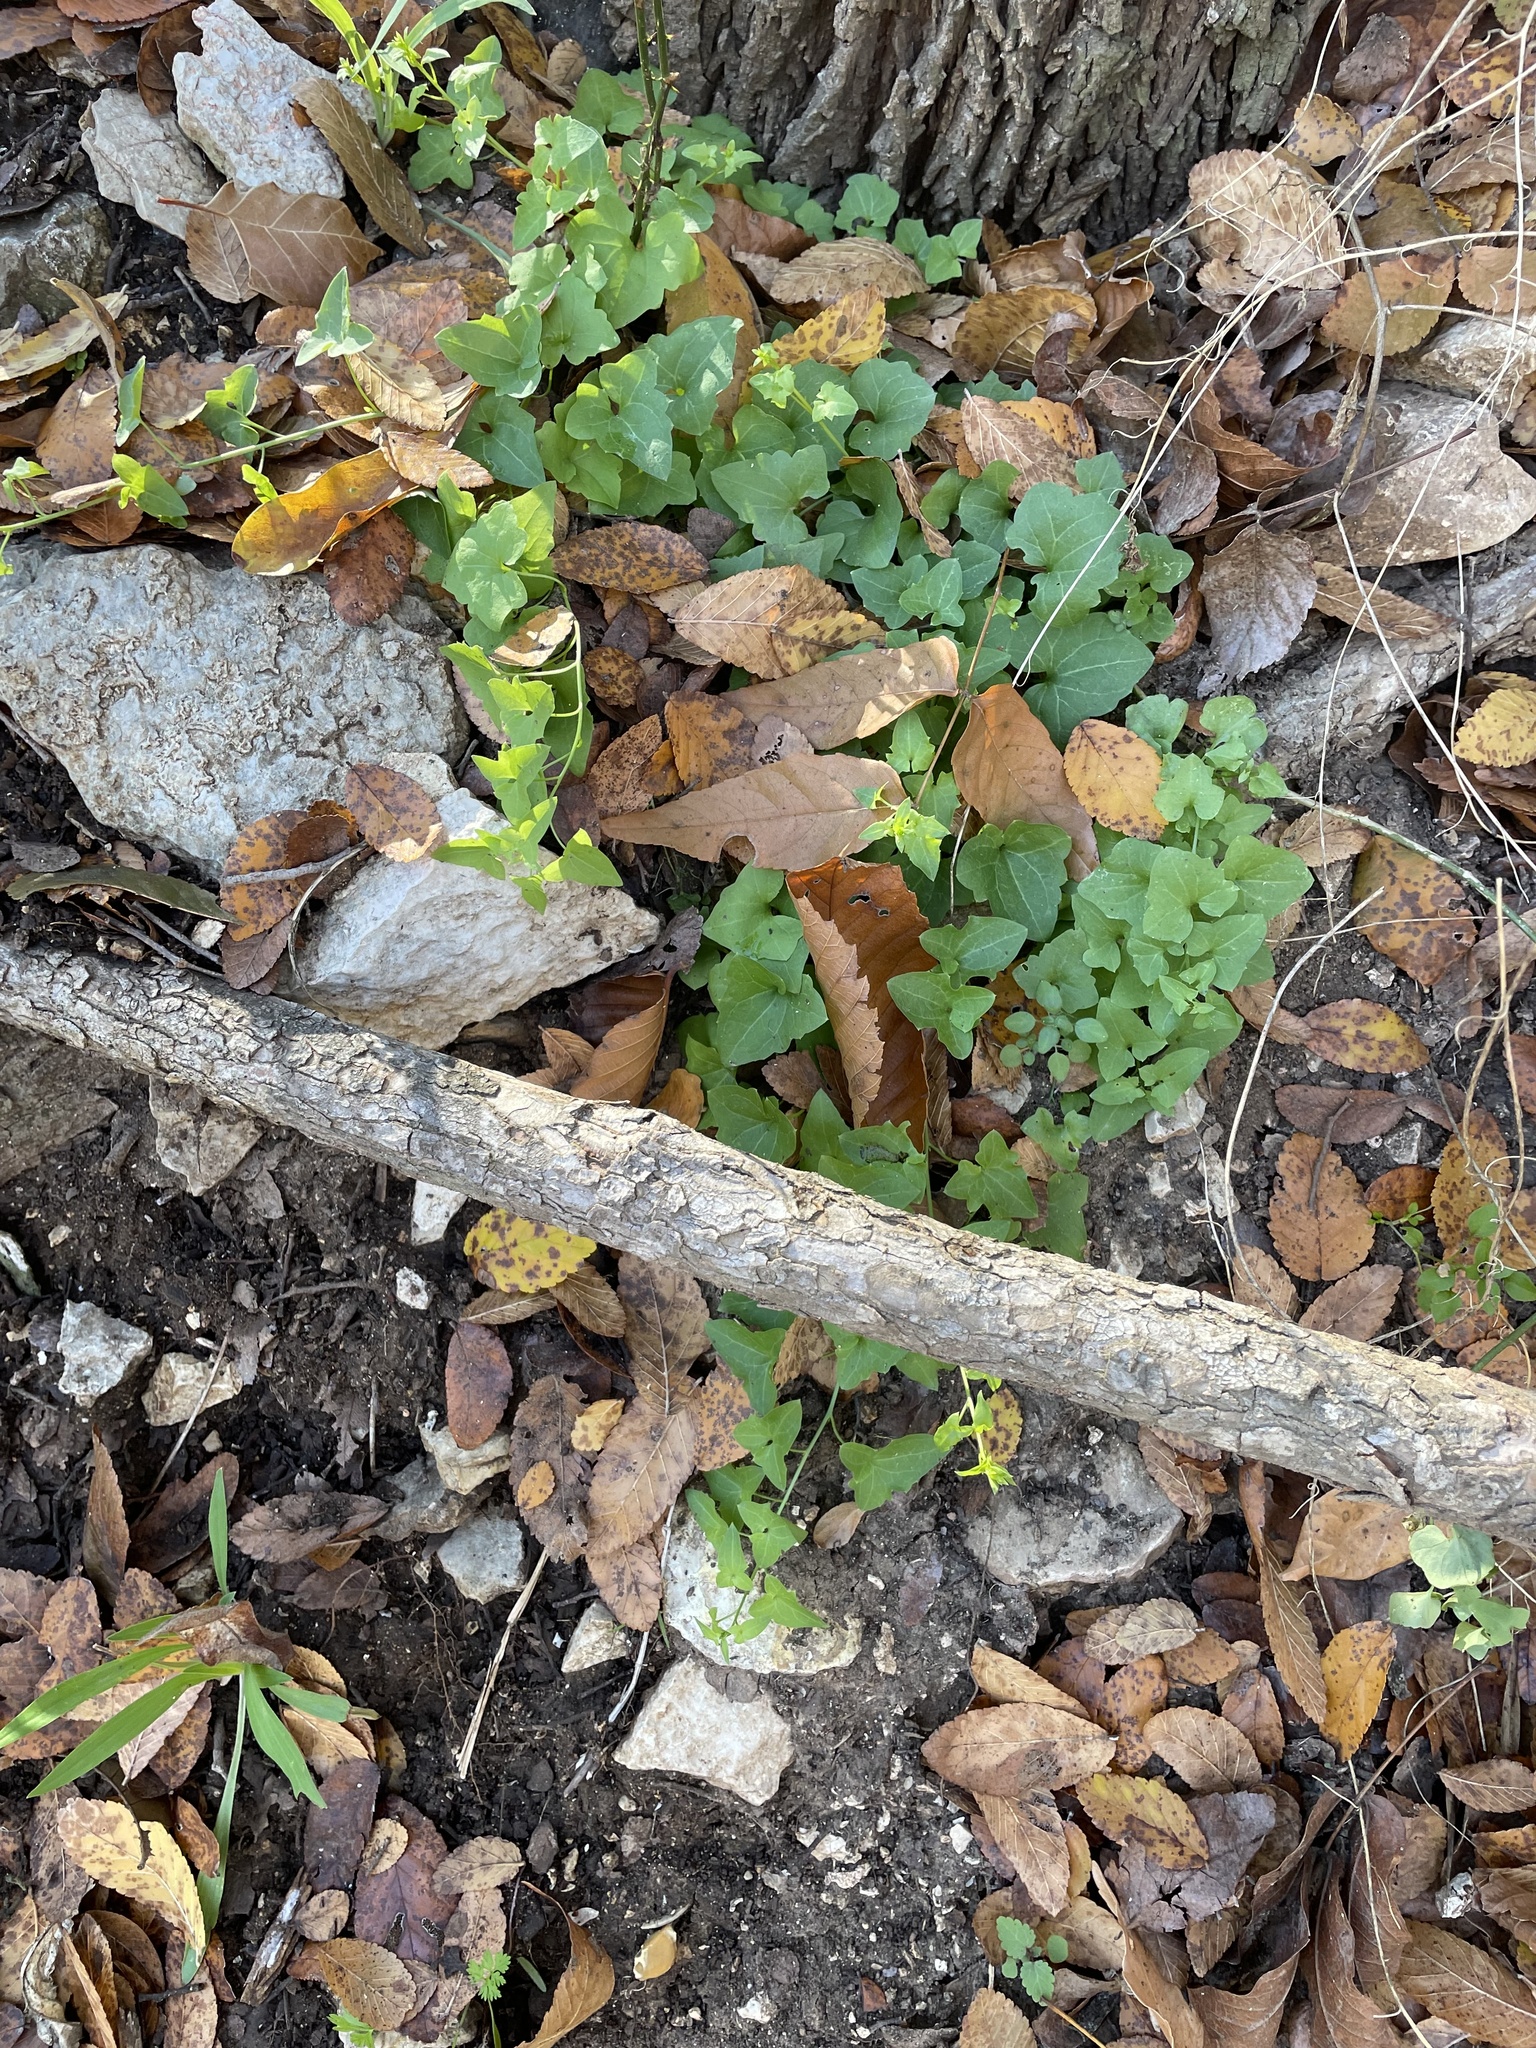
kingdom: Plantae
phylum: Tracheophyta
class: Magnoliopsida
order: Lamiales
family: Plantaginaceae
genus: Maurandella
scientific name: Maurandella antirrhiniflora
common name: Violet twining-snapdragon
